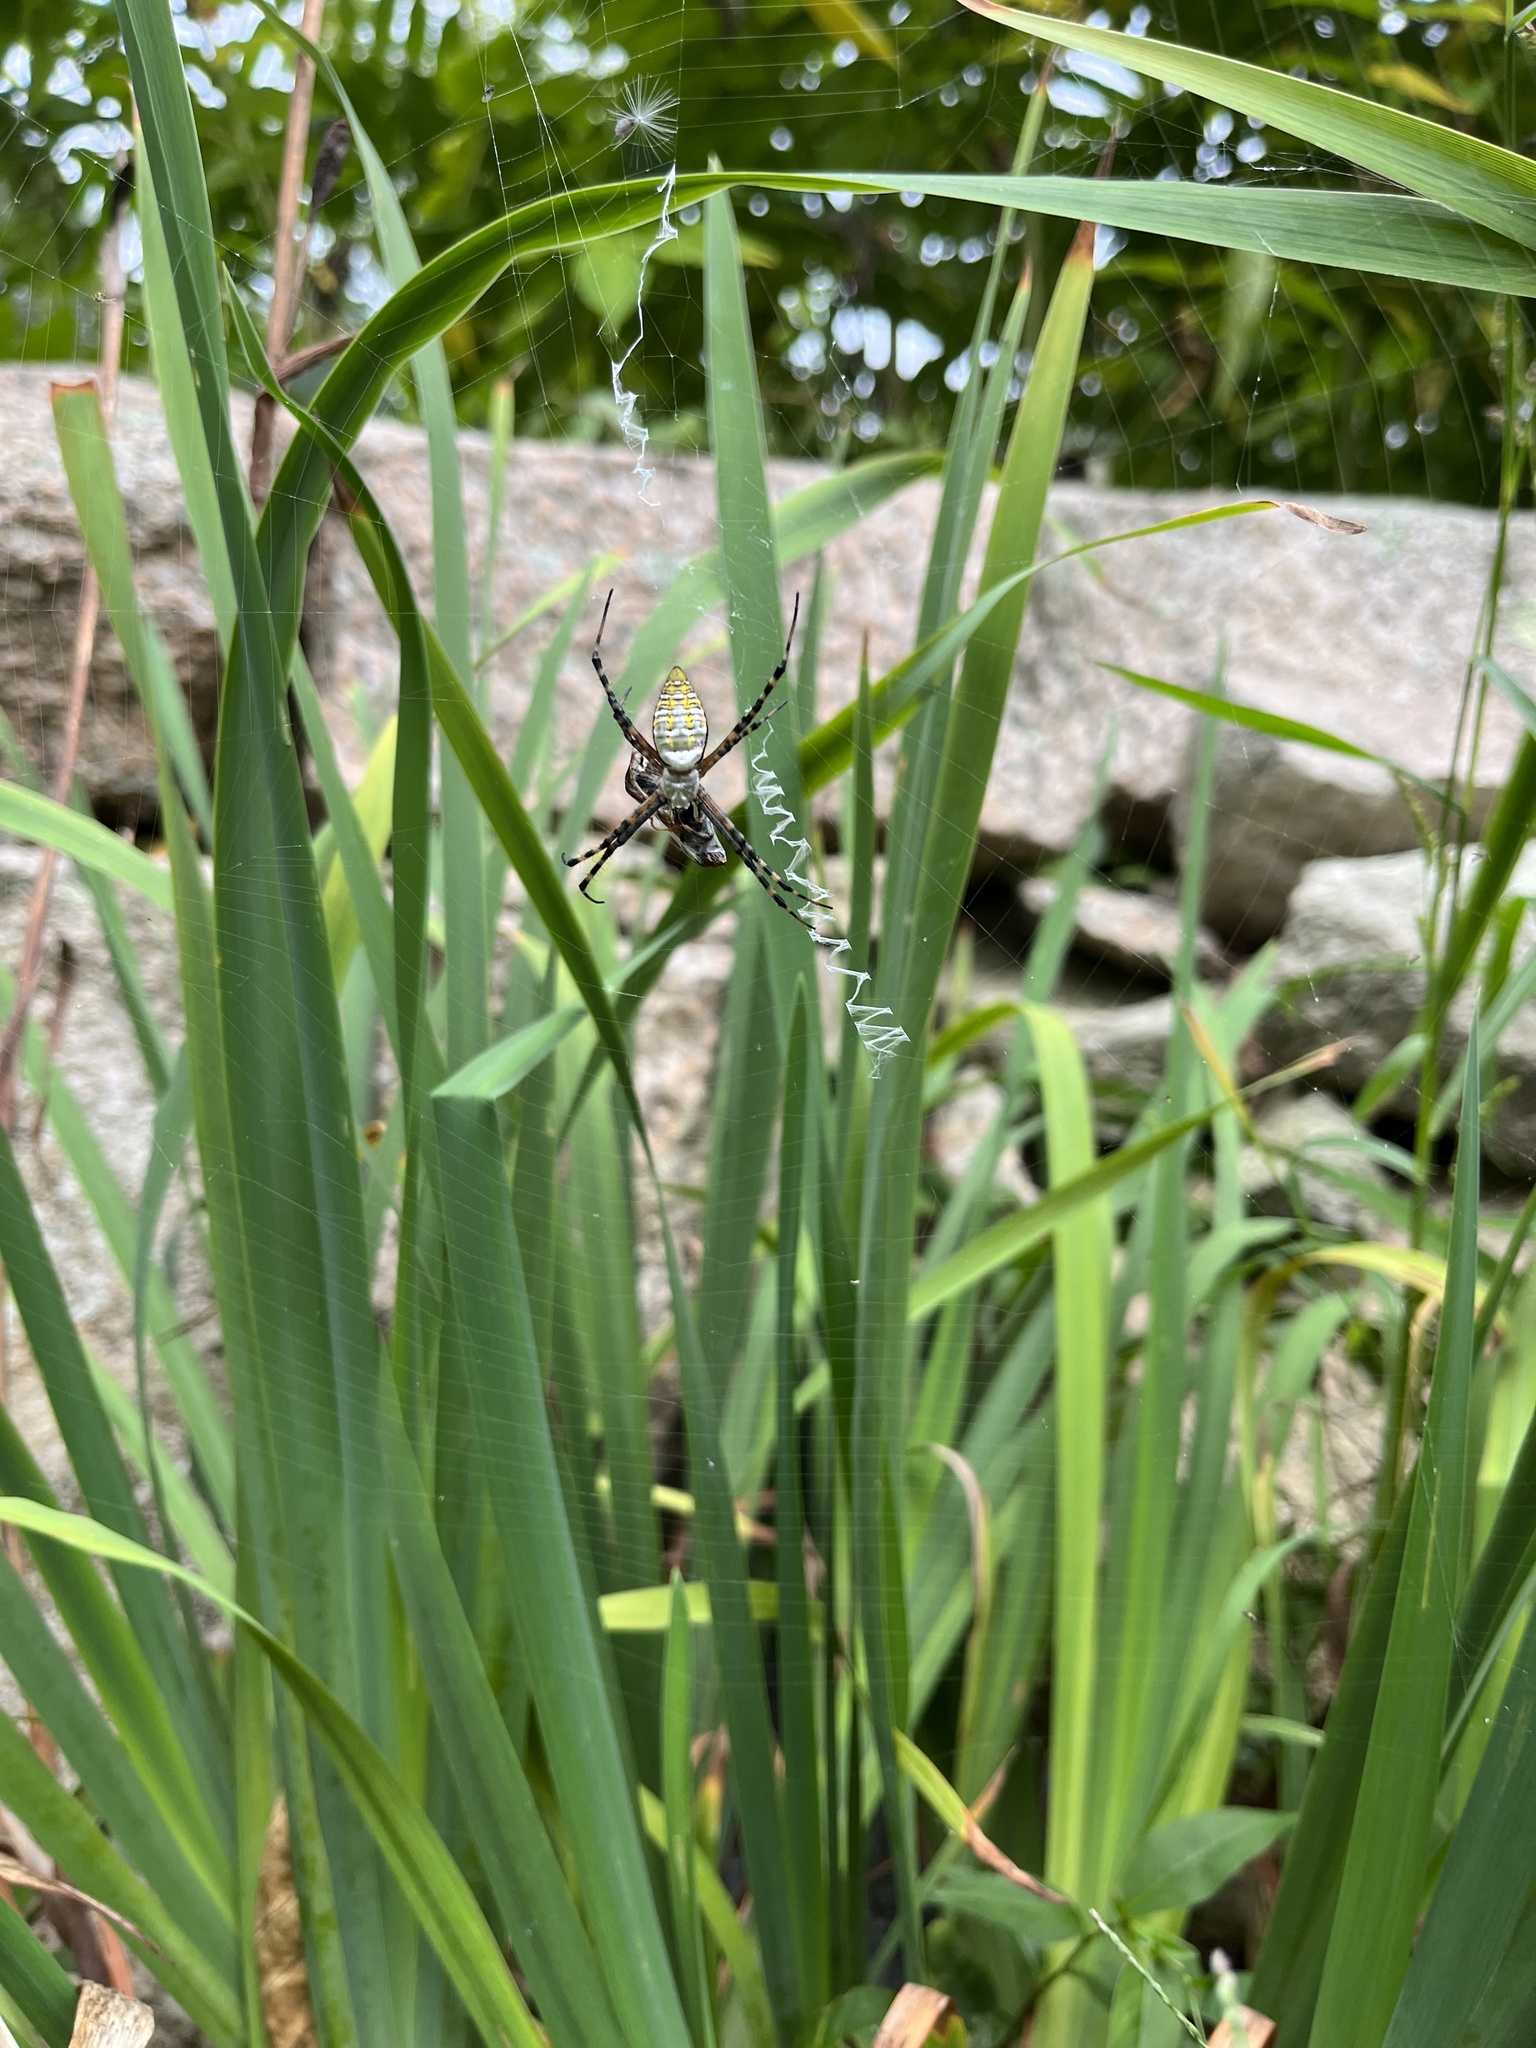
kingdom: Animalia
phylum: Arthropoda
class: Arachnida
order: Araneae
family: Araneidae
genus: Argiope
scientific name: Argiope trifasciata
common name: Banded garden spider
